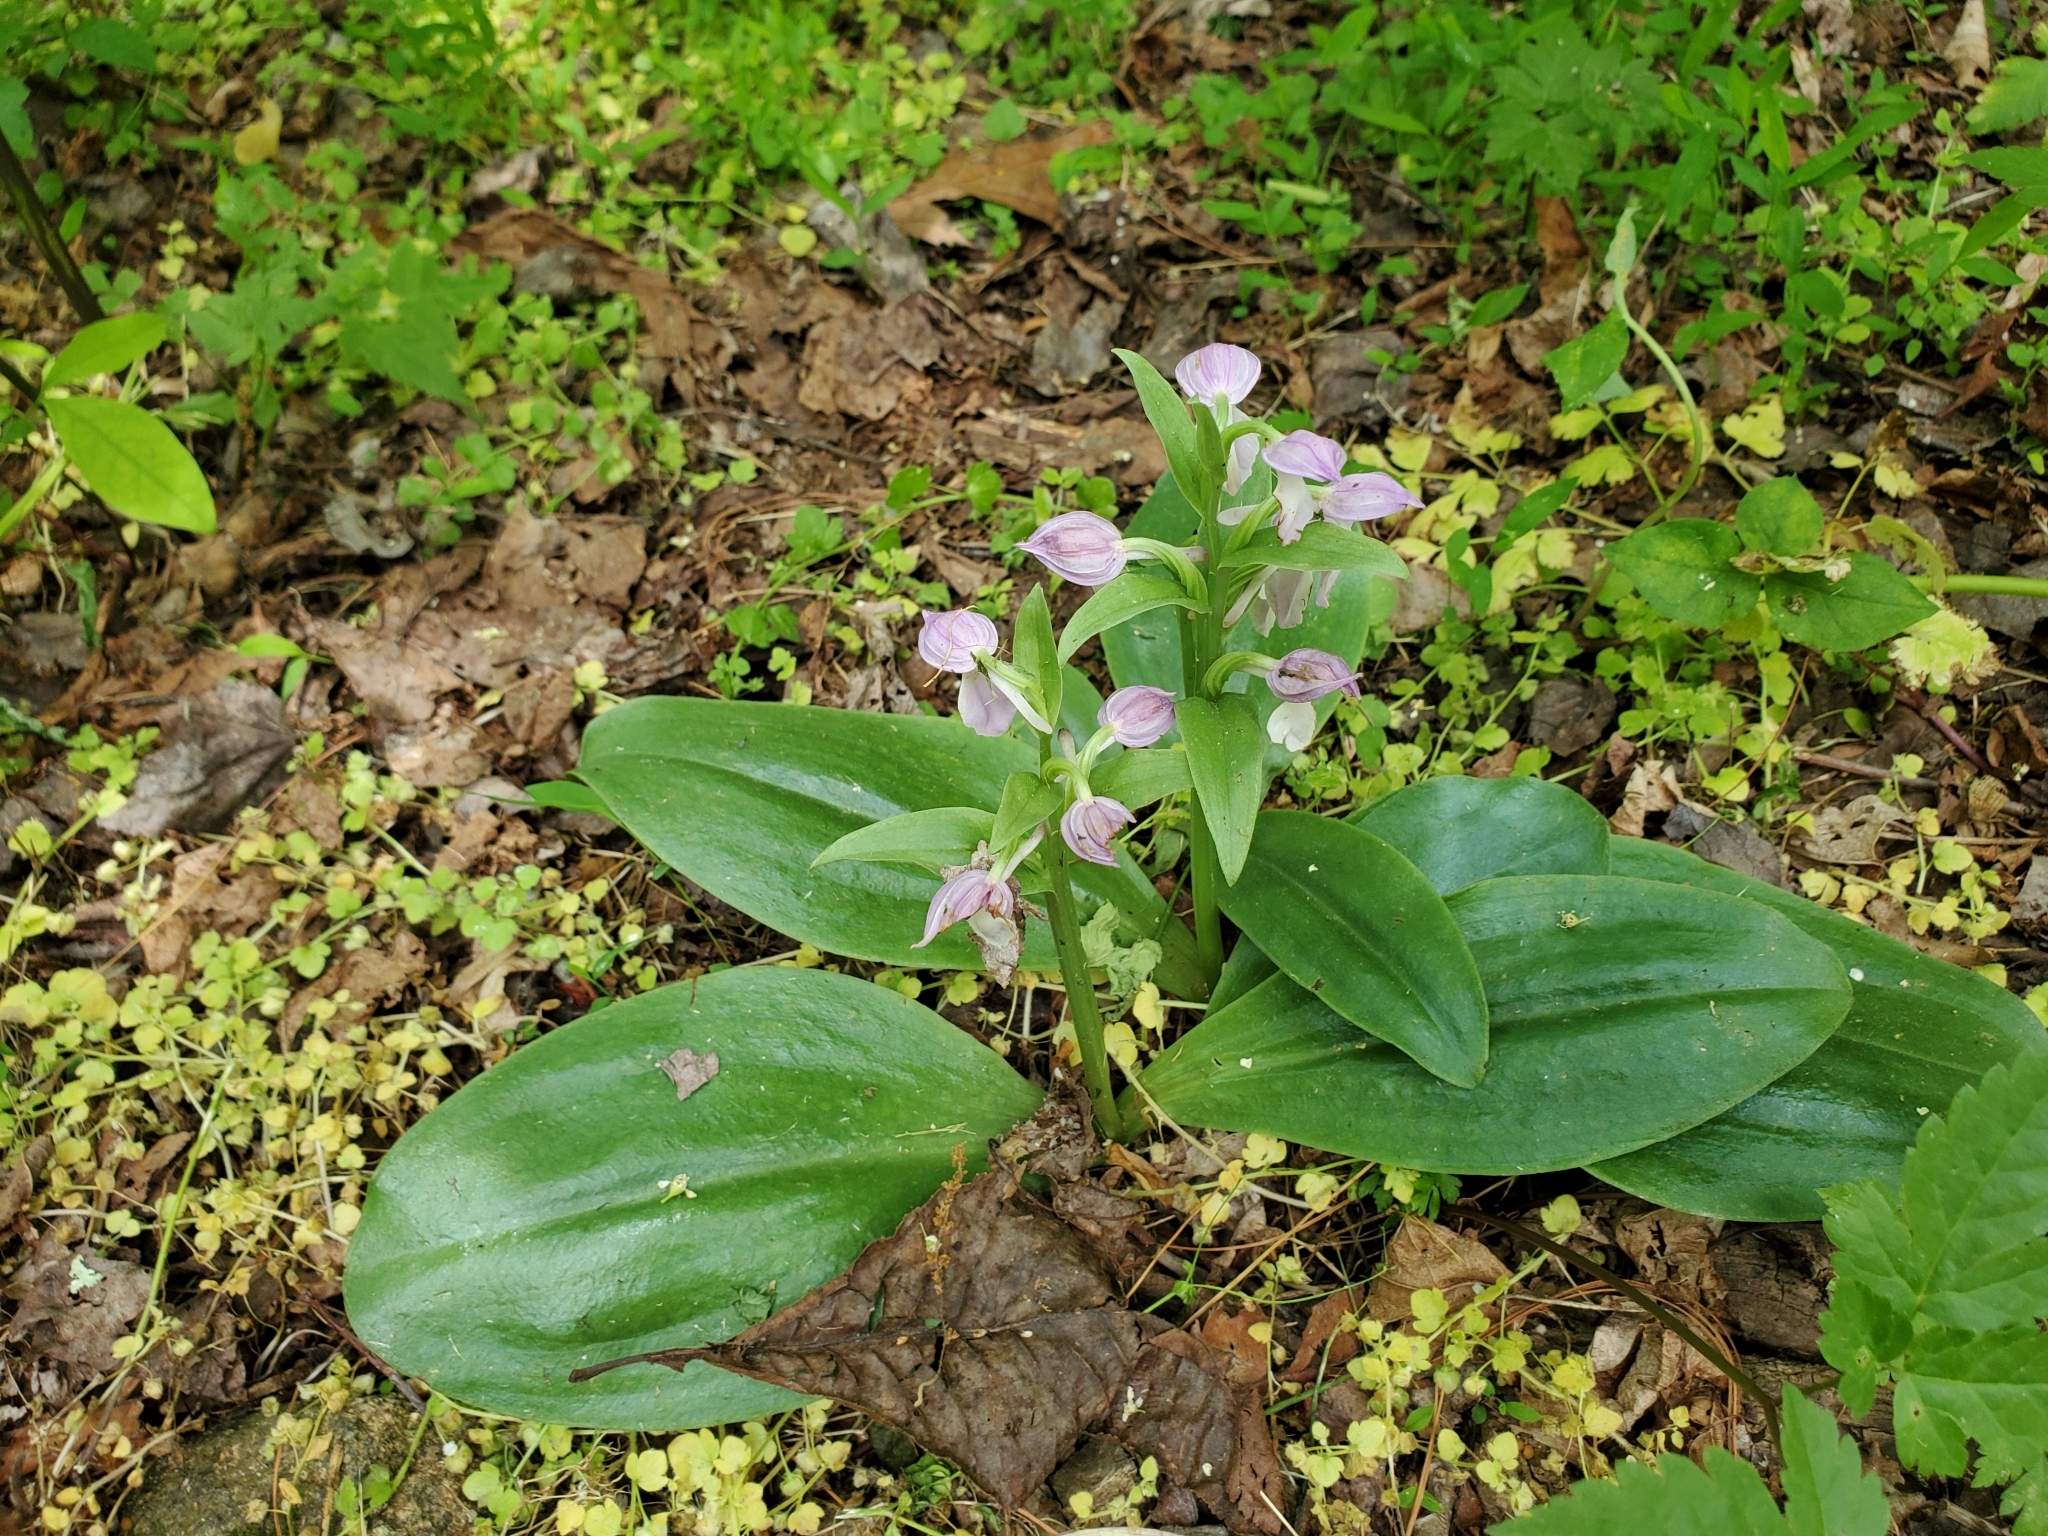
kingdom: Plantae
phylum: Tracheophyta
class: Liliopsida
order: Asparagales
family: Orchidaceae
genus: Galearis
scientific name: Galearis spectabilis
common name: Purple-hooded orchis
